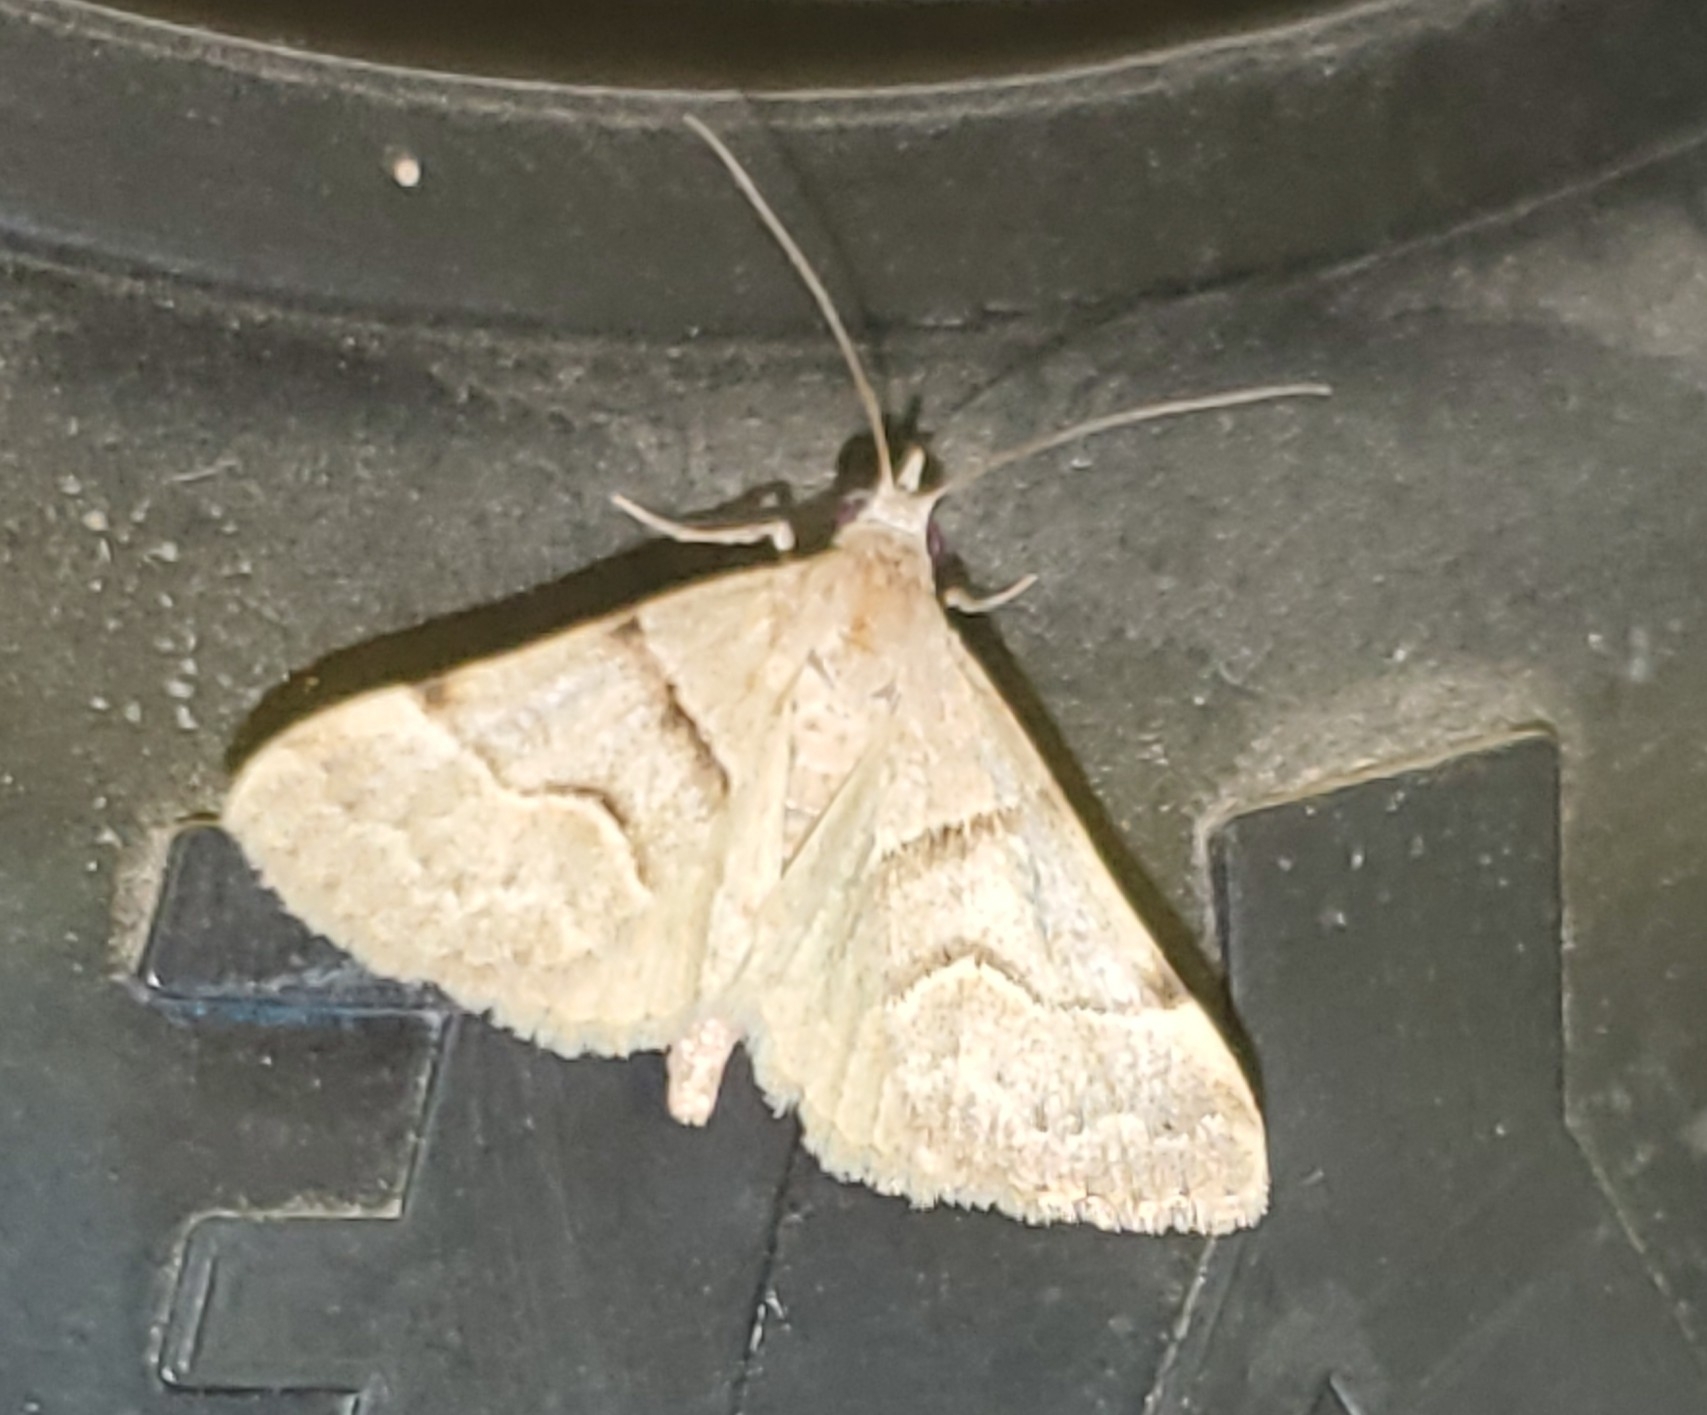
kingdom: Animalia
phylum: Arthropoda
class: Insecta
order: Lepidoptera
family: Erebidae
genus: Hemeroplanis
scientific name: Hemeroplanis incusalis
